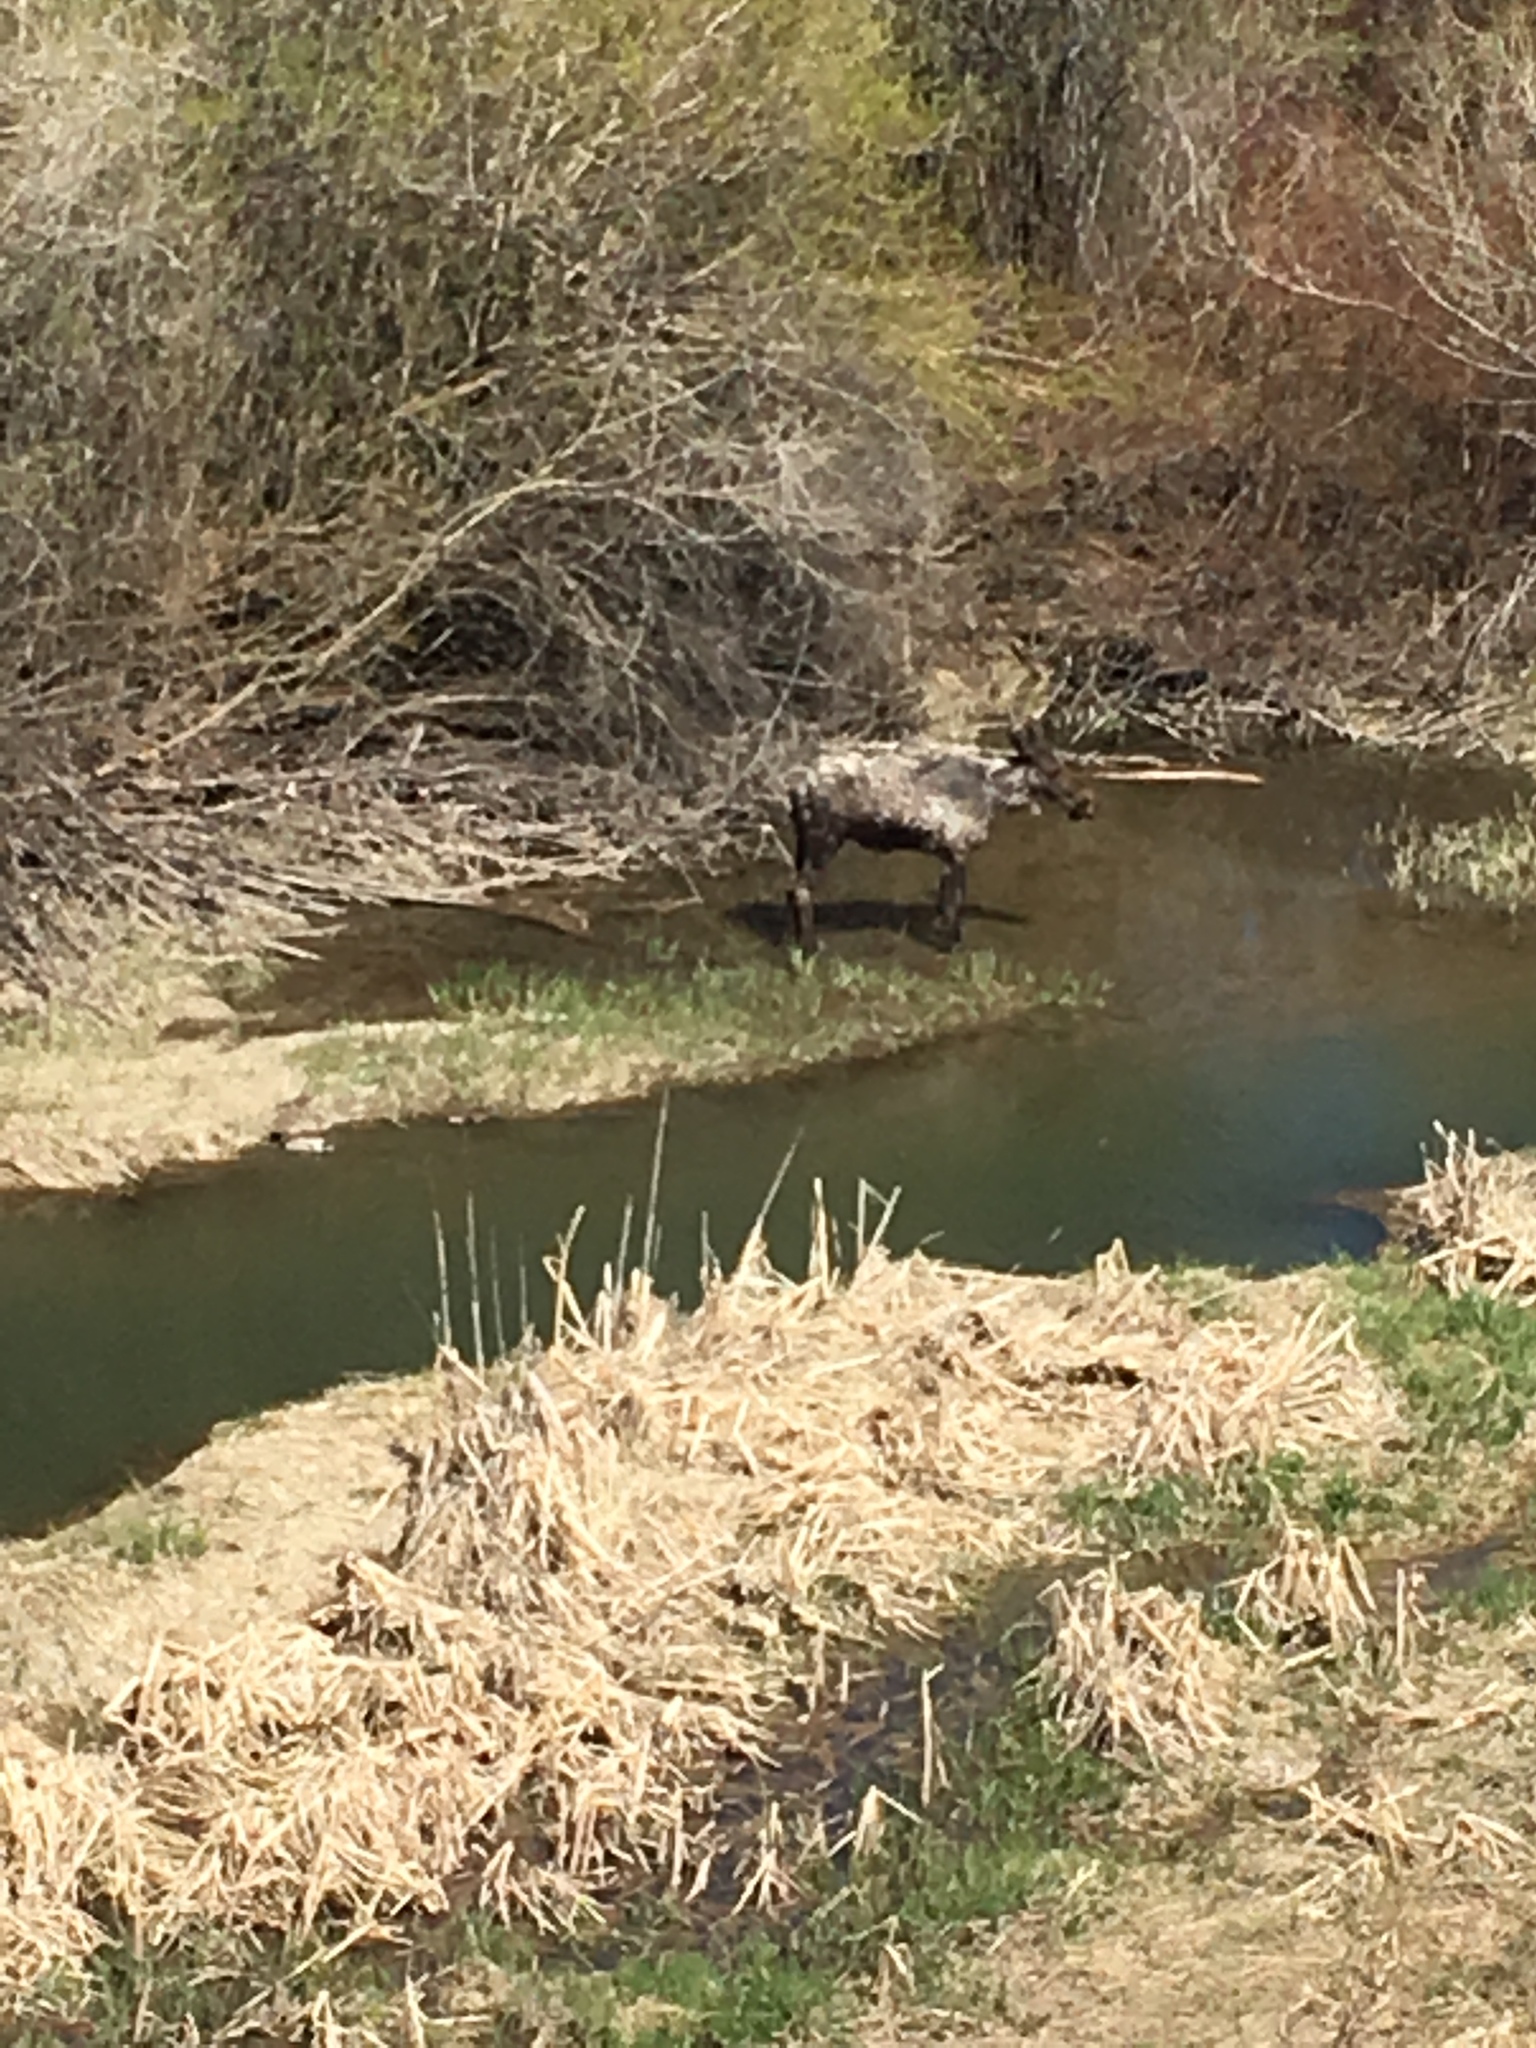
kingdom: Animalia
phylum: Chordata
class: Mammalia
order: Artiodactyla
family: Cervidae
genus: Alces
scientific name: Alces alces
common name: Moose
